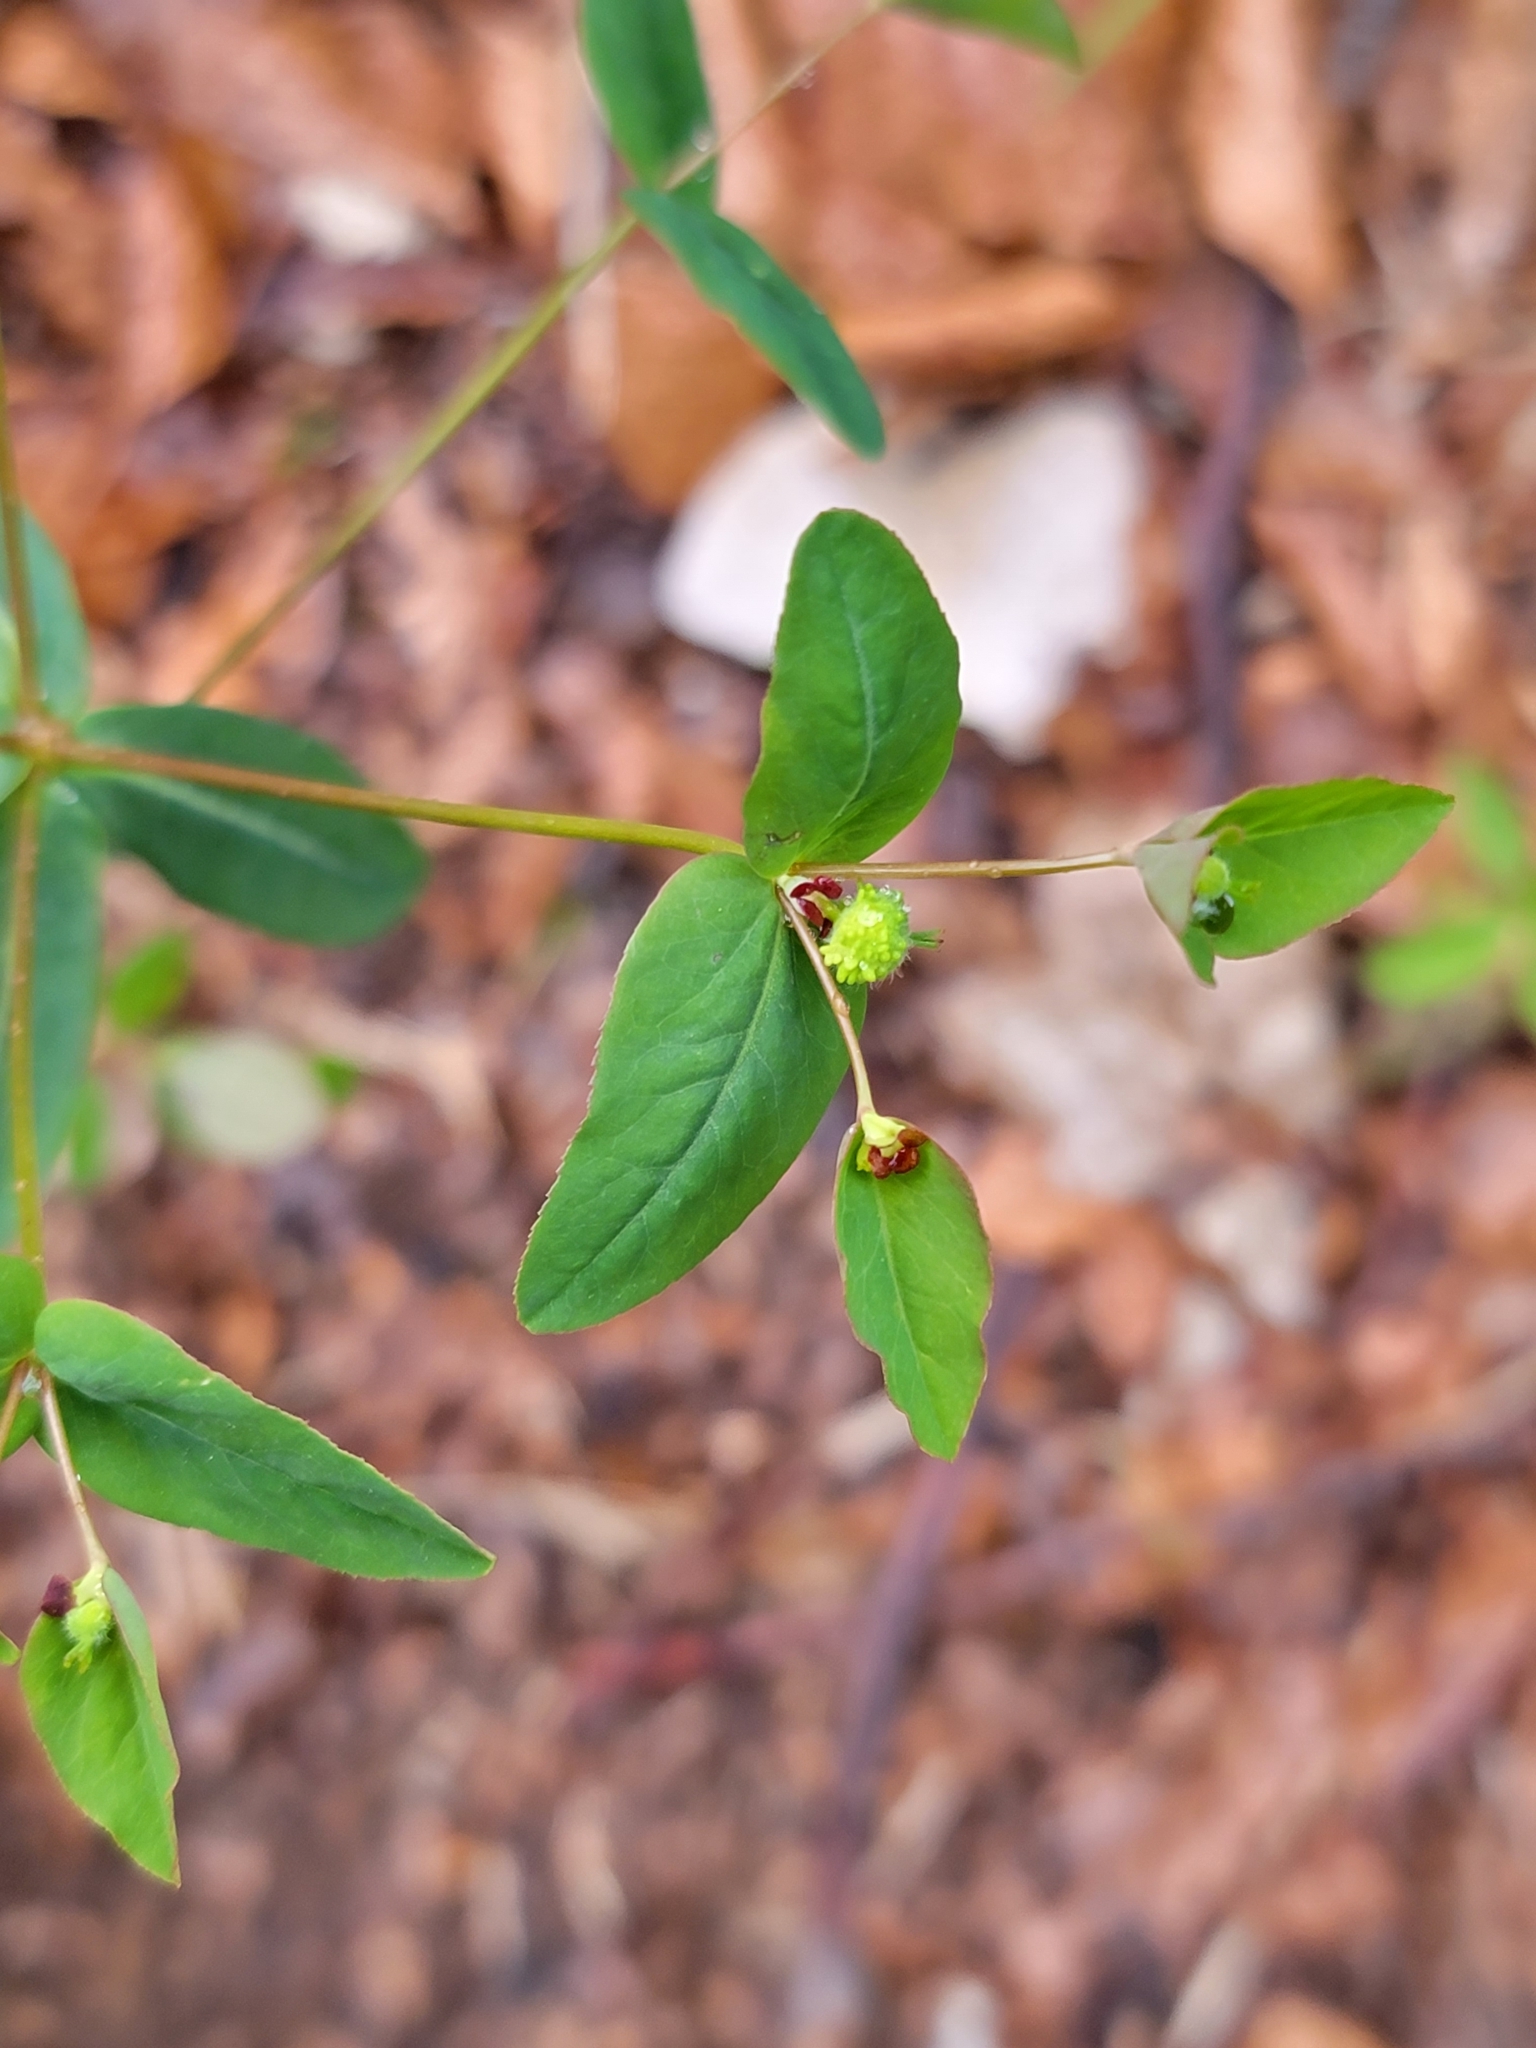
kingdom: Plantae
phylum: Tracheophyta
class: Magnoliopsida
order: Malpighiales
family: Euphorbiaceae
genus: Euphorbia
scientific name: Euphorbia dulcis
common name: Sweet spurge
